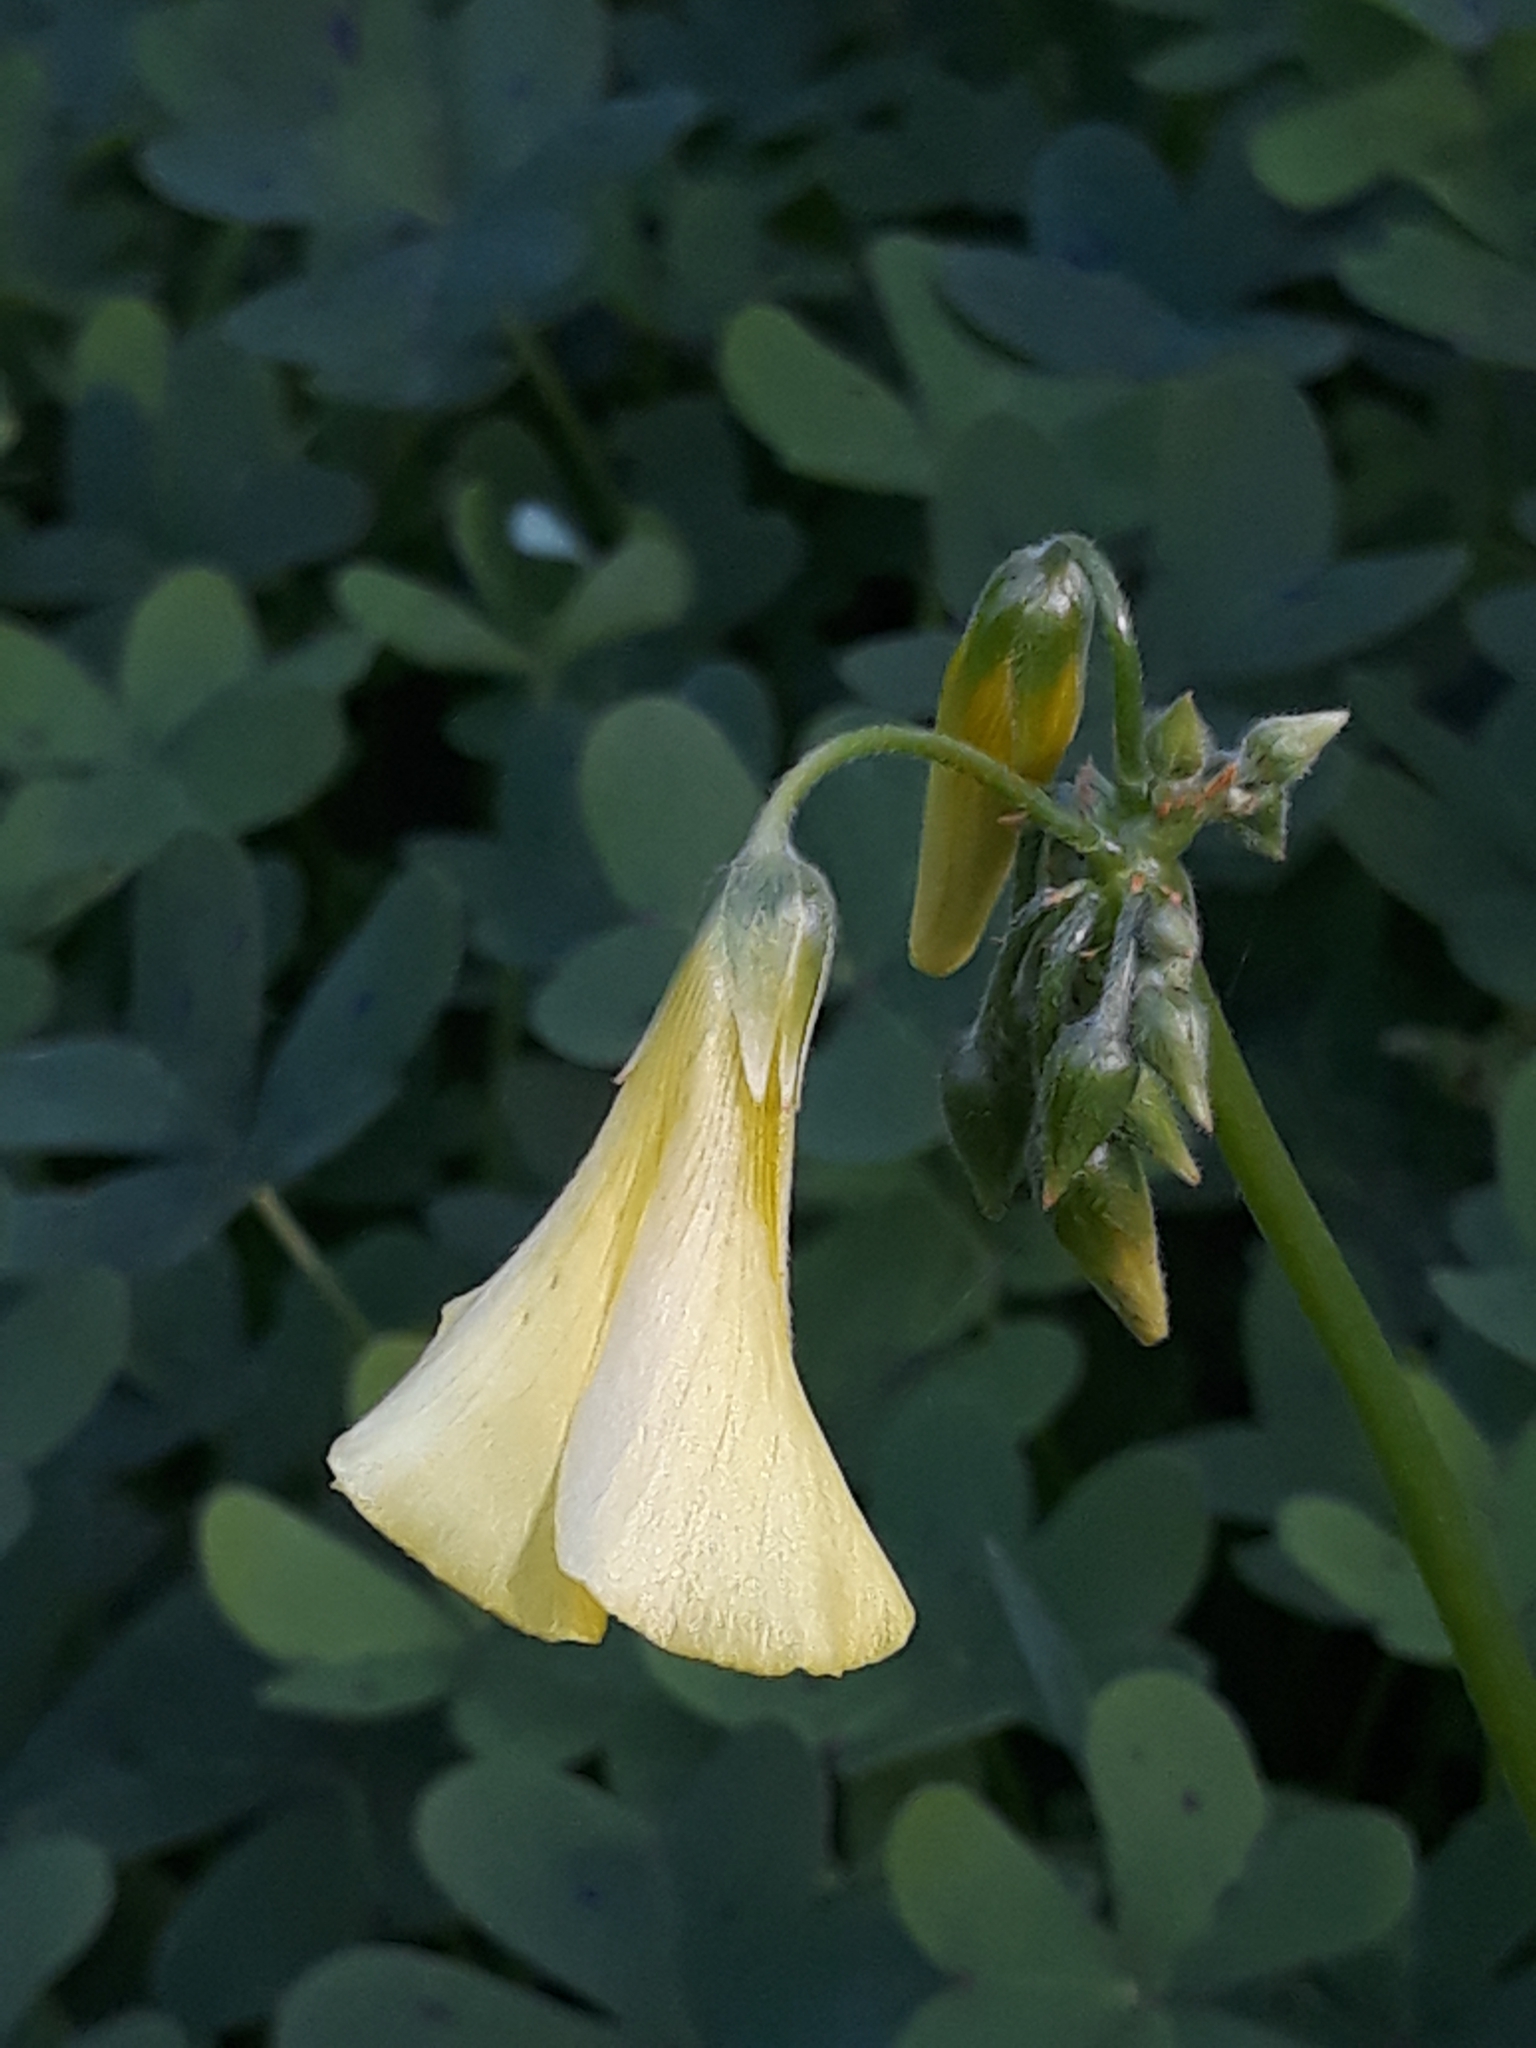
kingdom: Plantae
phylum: Tracheophyta
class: Magnoliopsida
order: Oxalidales
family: Oxalidaceae
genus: Oxalis
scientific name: Oxalis pes-caprae
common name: Bermuda-buttercup
